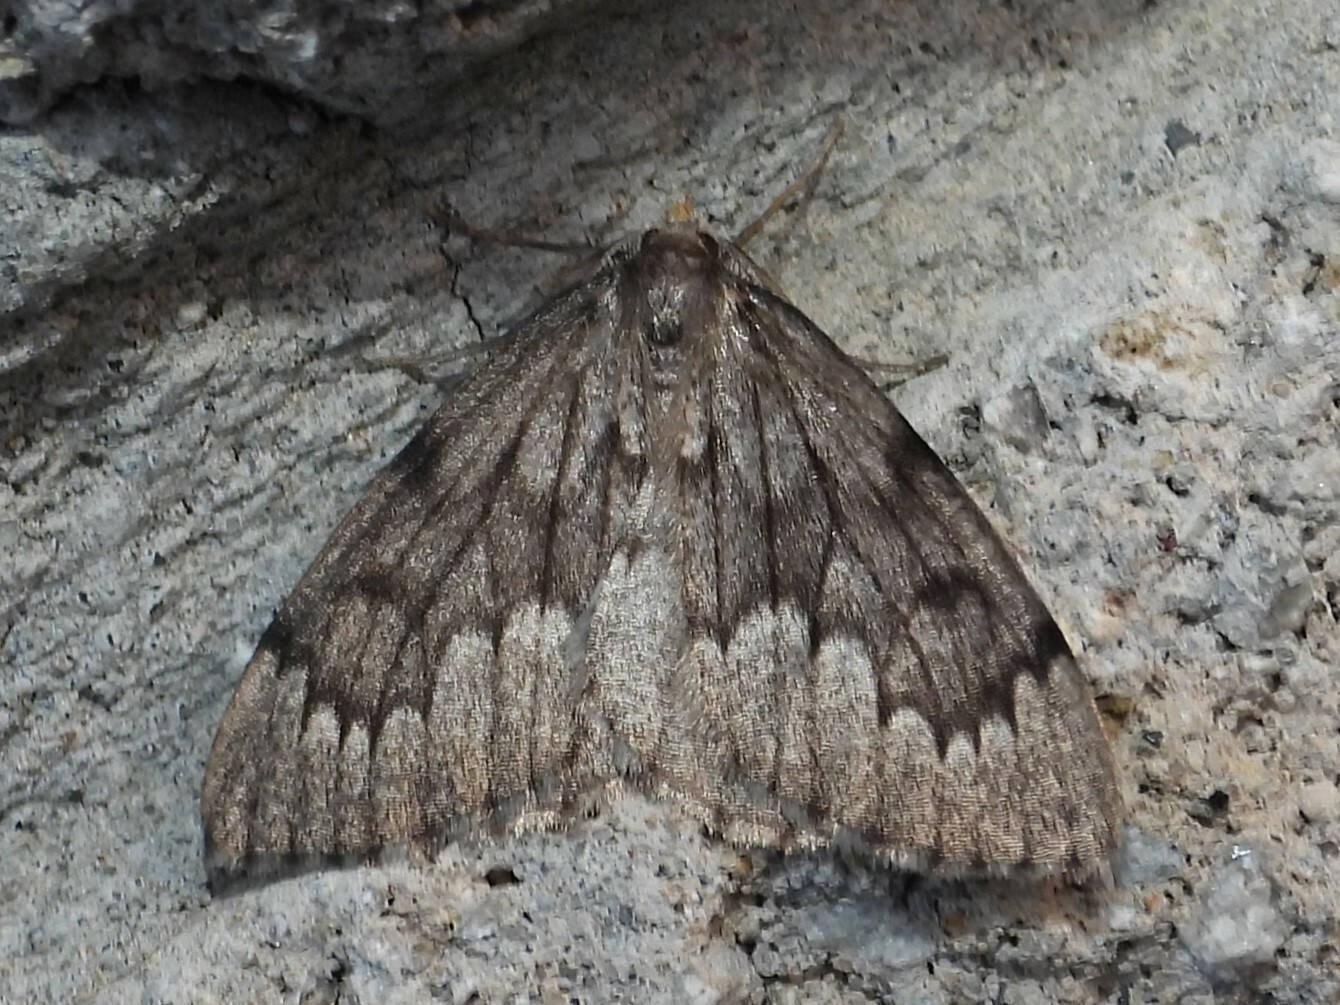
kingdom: Animalia
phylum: Arthropoda
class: Insecta
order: Lepidoptera
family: Geometridae
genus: Nepytia
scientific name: Nepytia canosaria
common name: False hemlock looper
